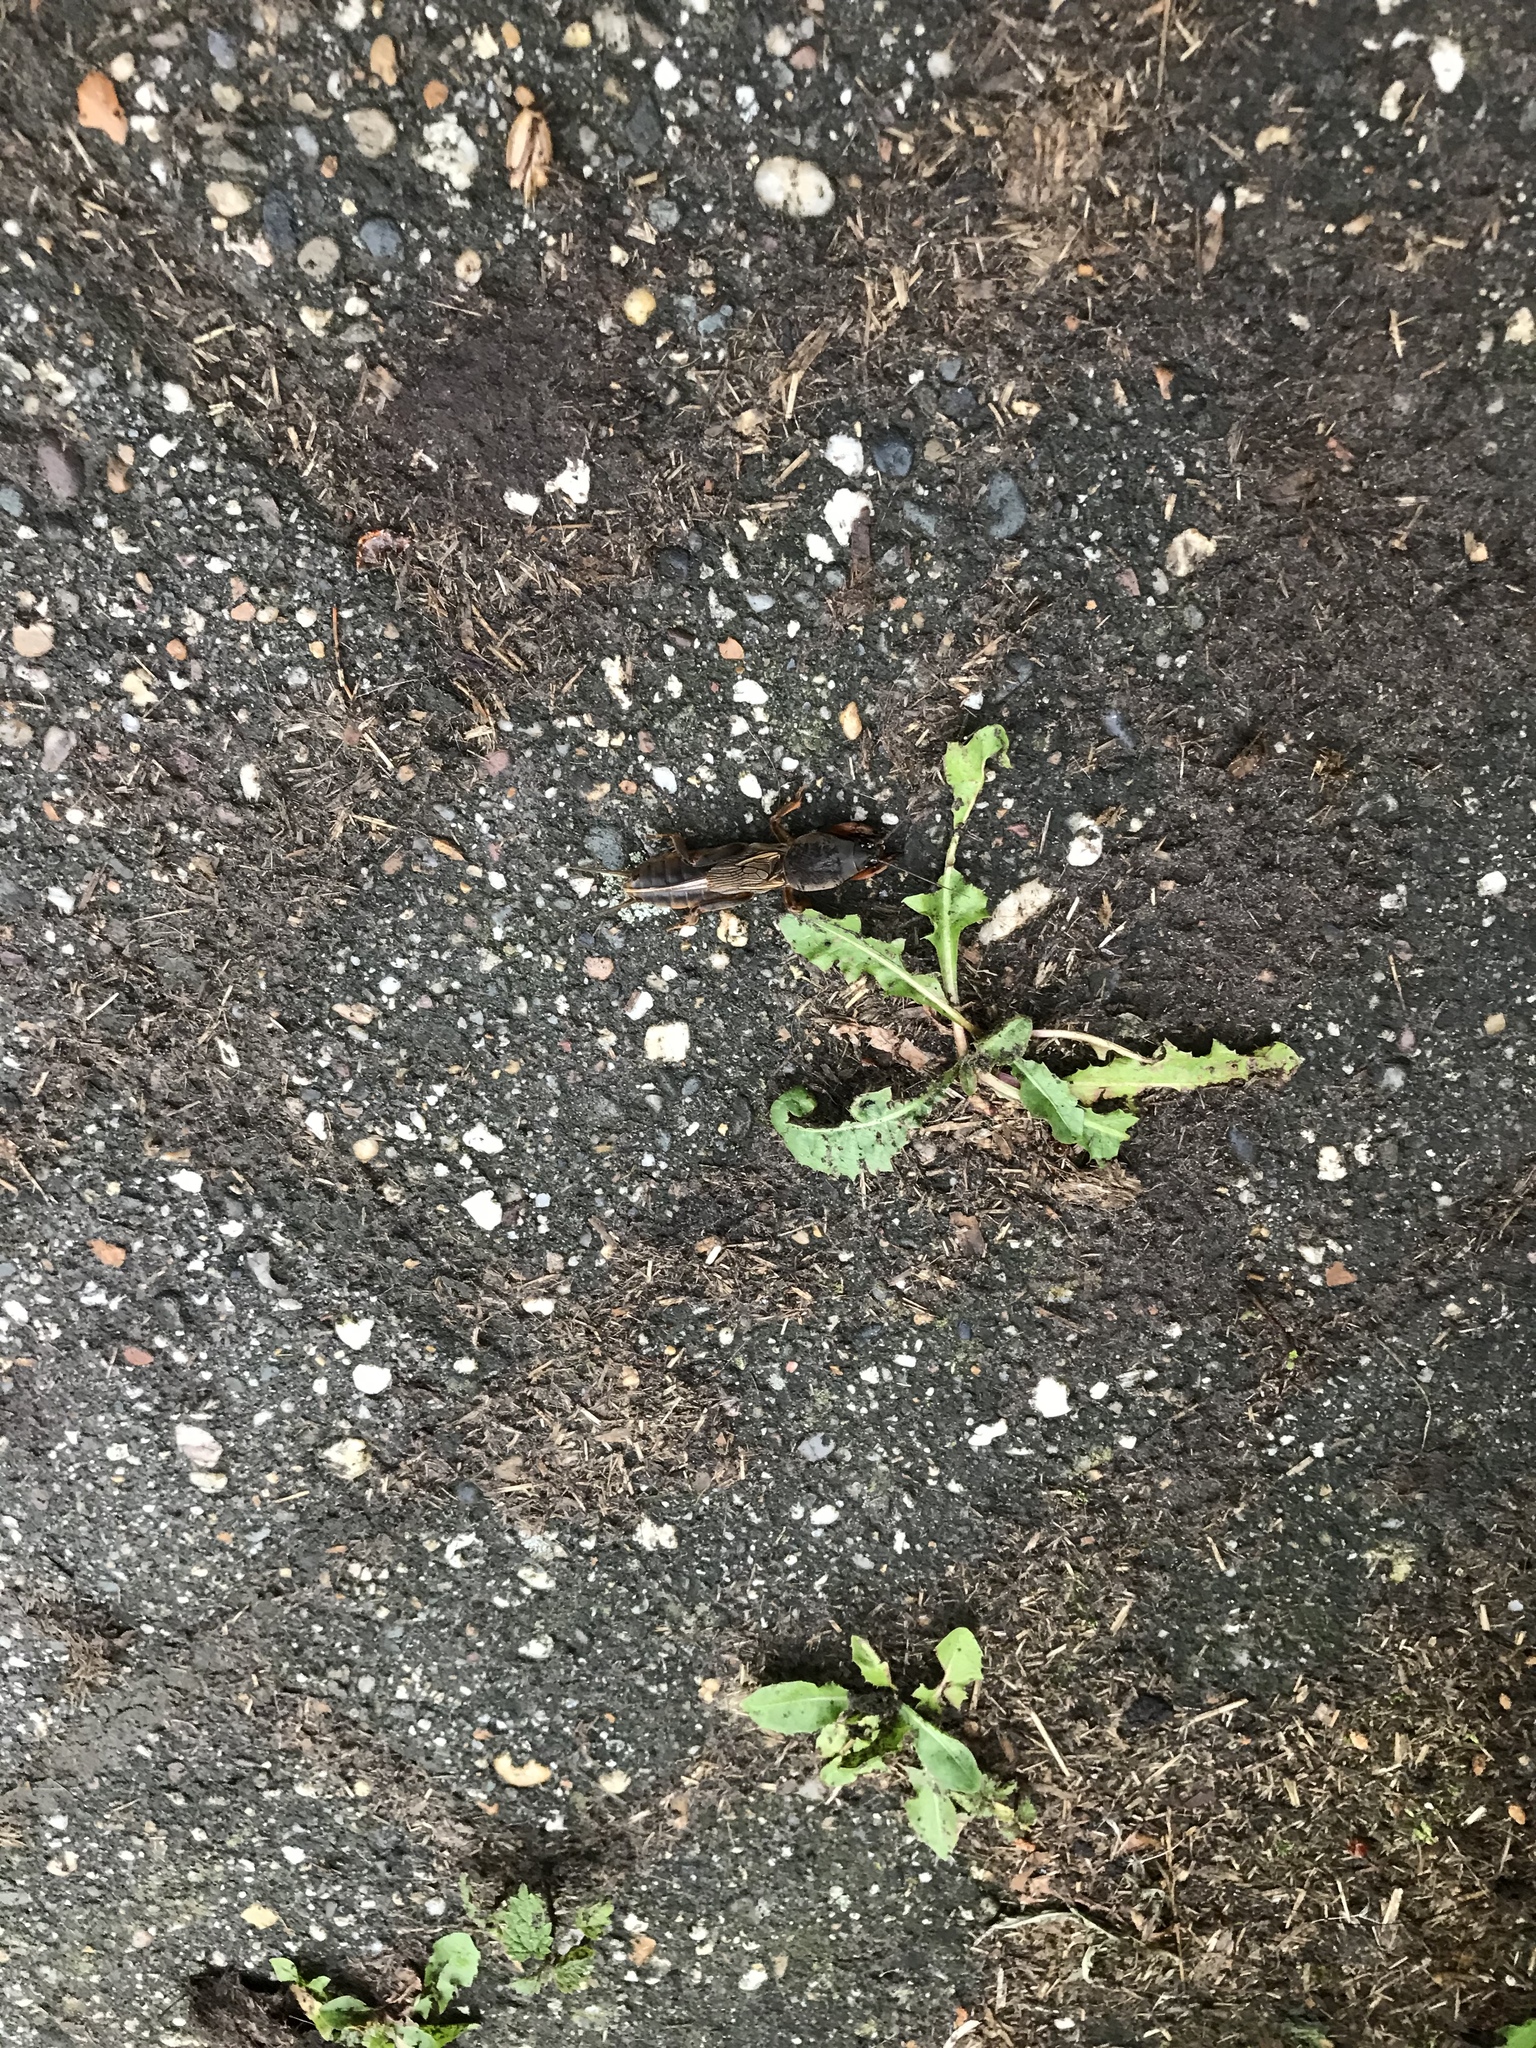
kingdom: Animalia
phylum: Arthropoda
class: Insecta
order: Orthoptera
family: Gryllotalpidae
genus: Gryllotalpa
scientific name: Gryllotalpa gryllotalpa
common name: European mole cricket
